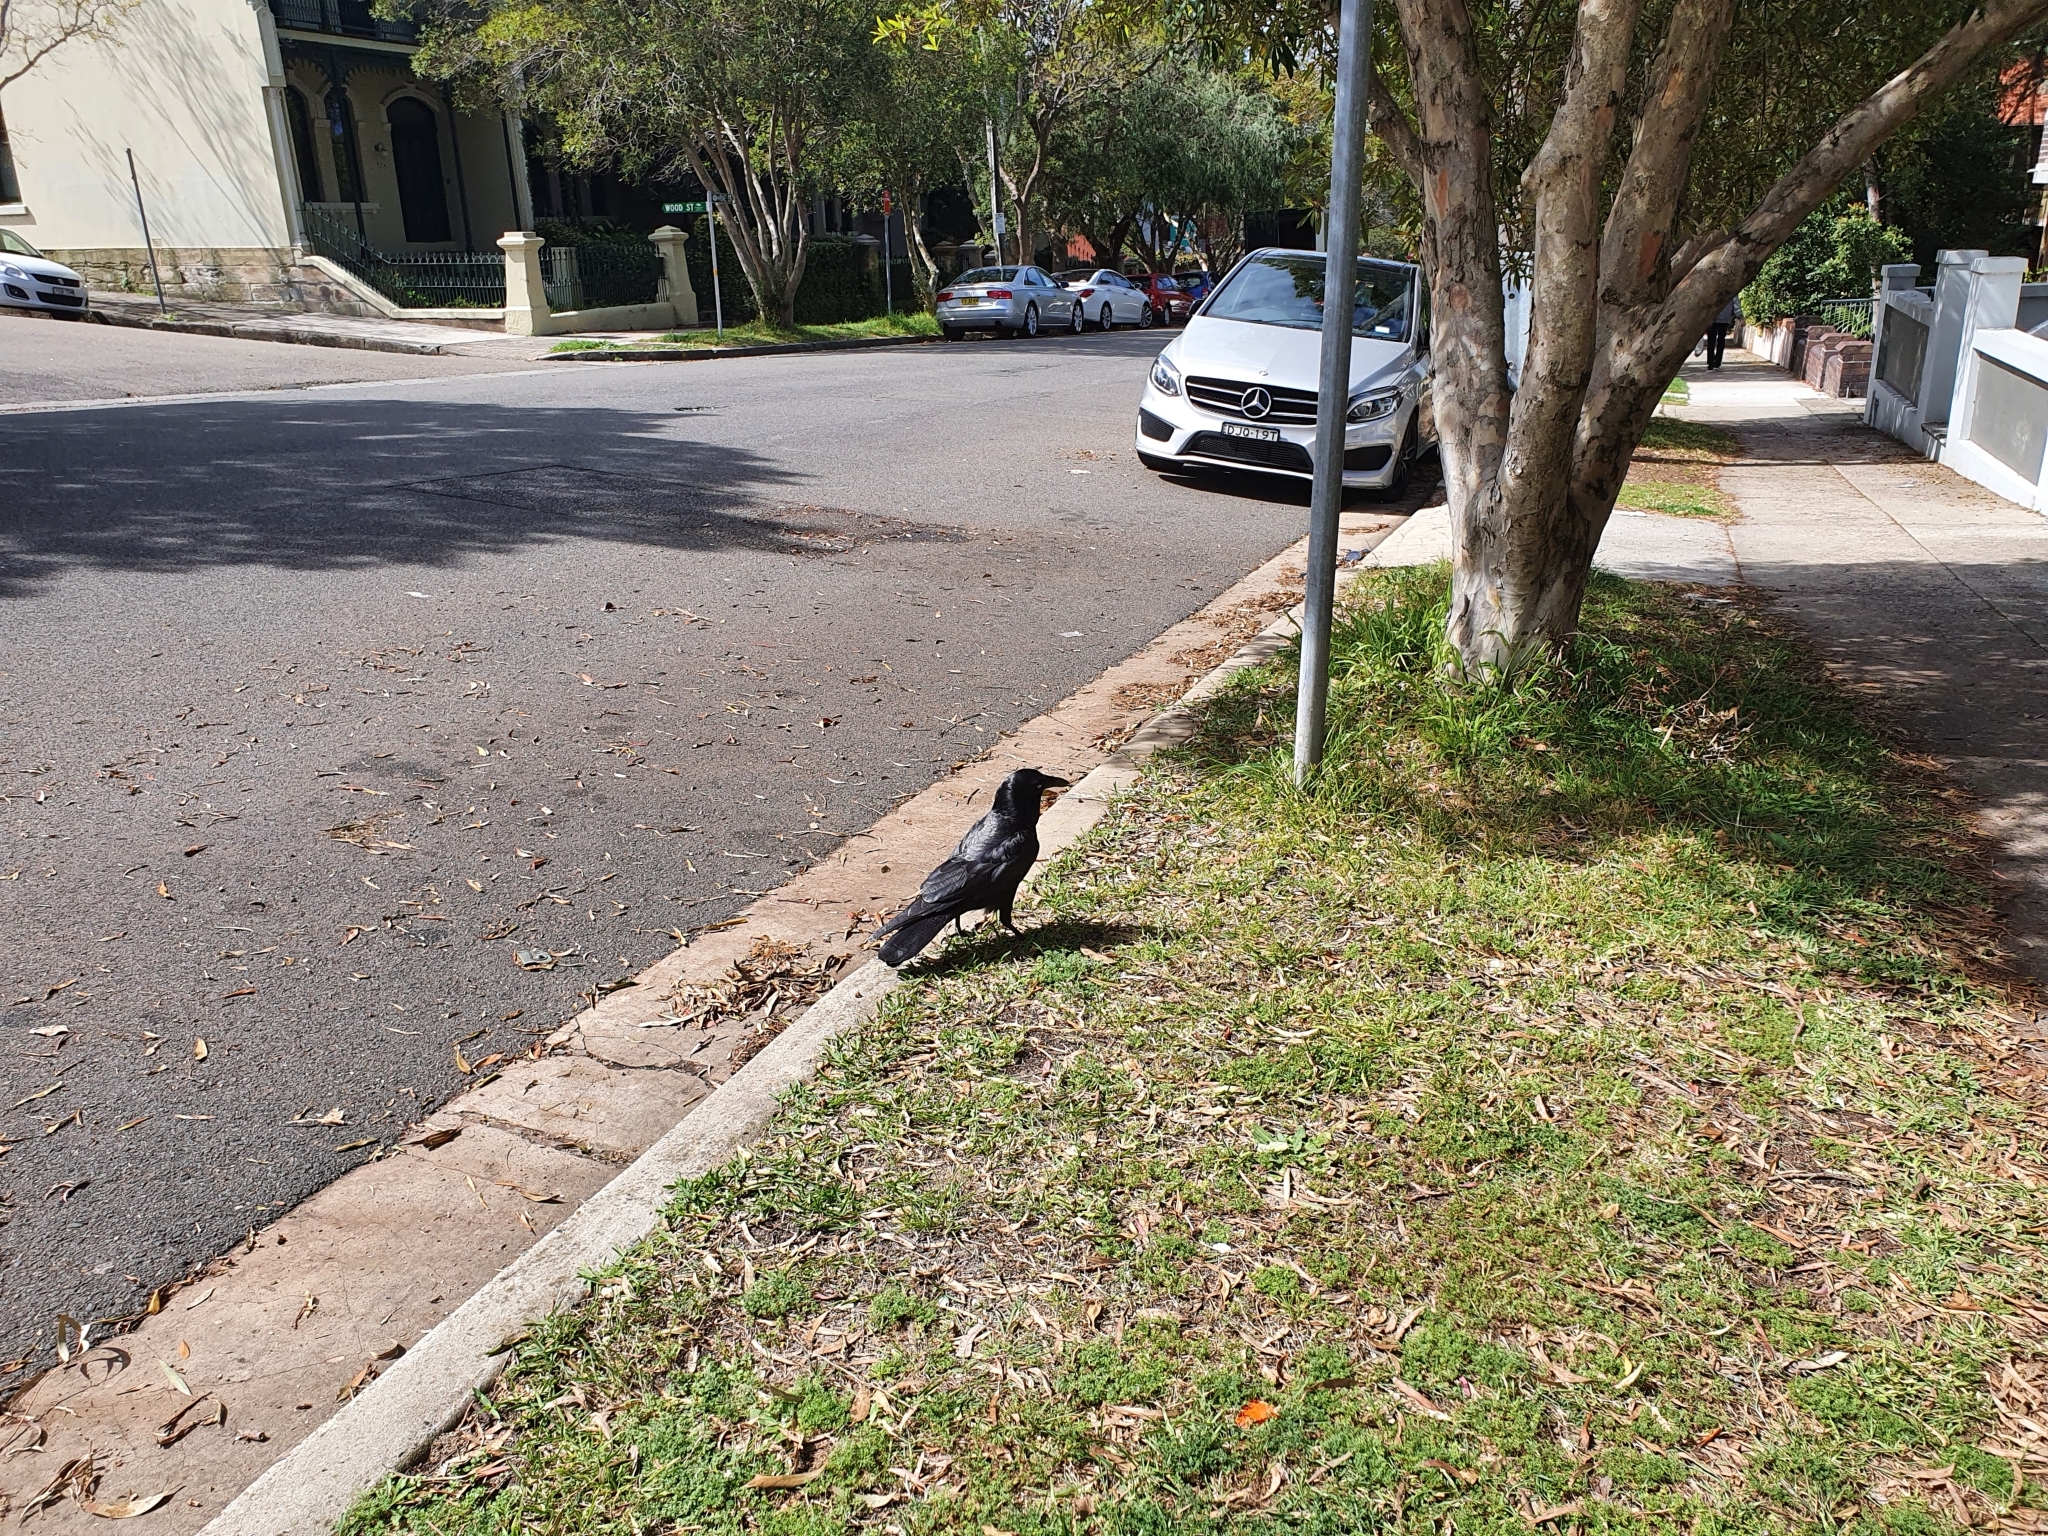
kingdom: Animalia
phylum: Chordata
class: Aves
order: Passeriformes
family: Corvidae
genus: Corvus
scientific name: Corvus coronoides
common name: Australian raven
